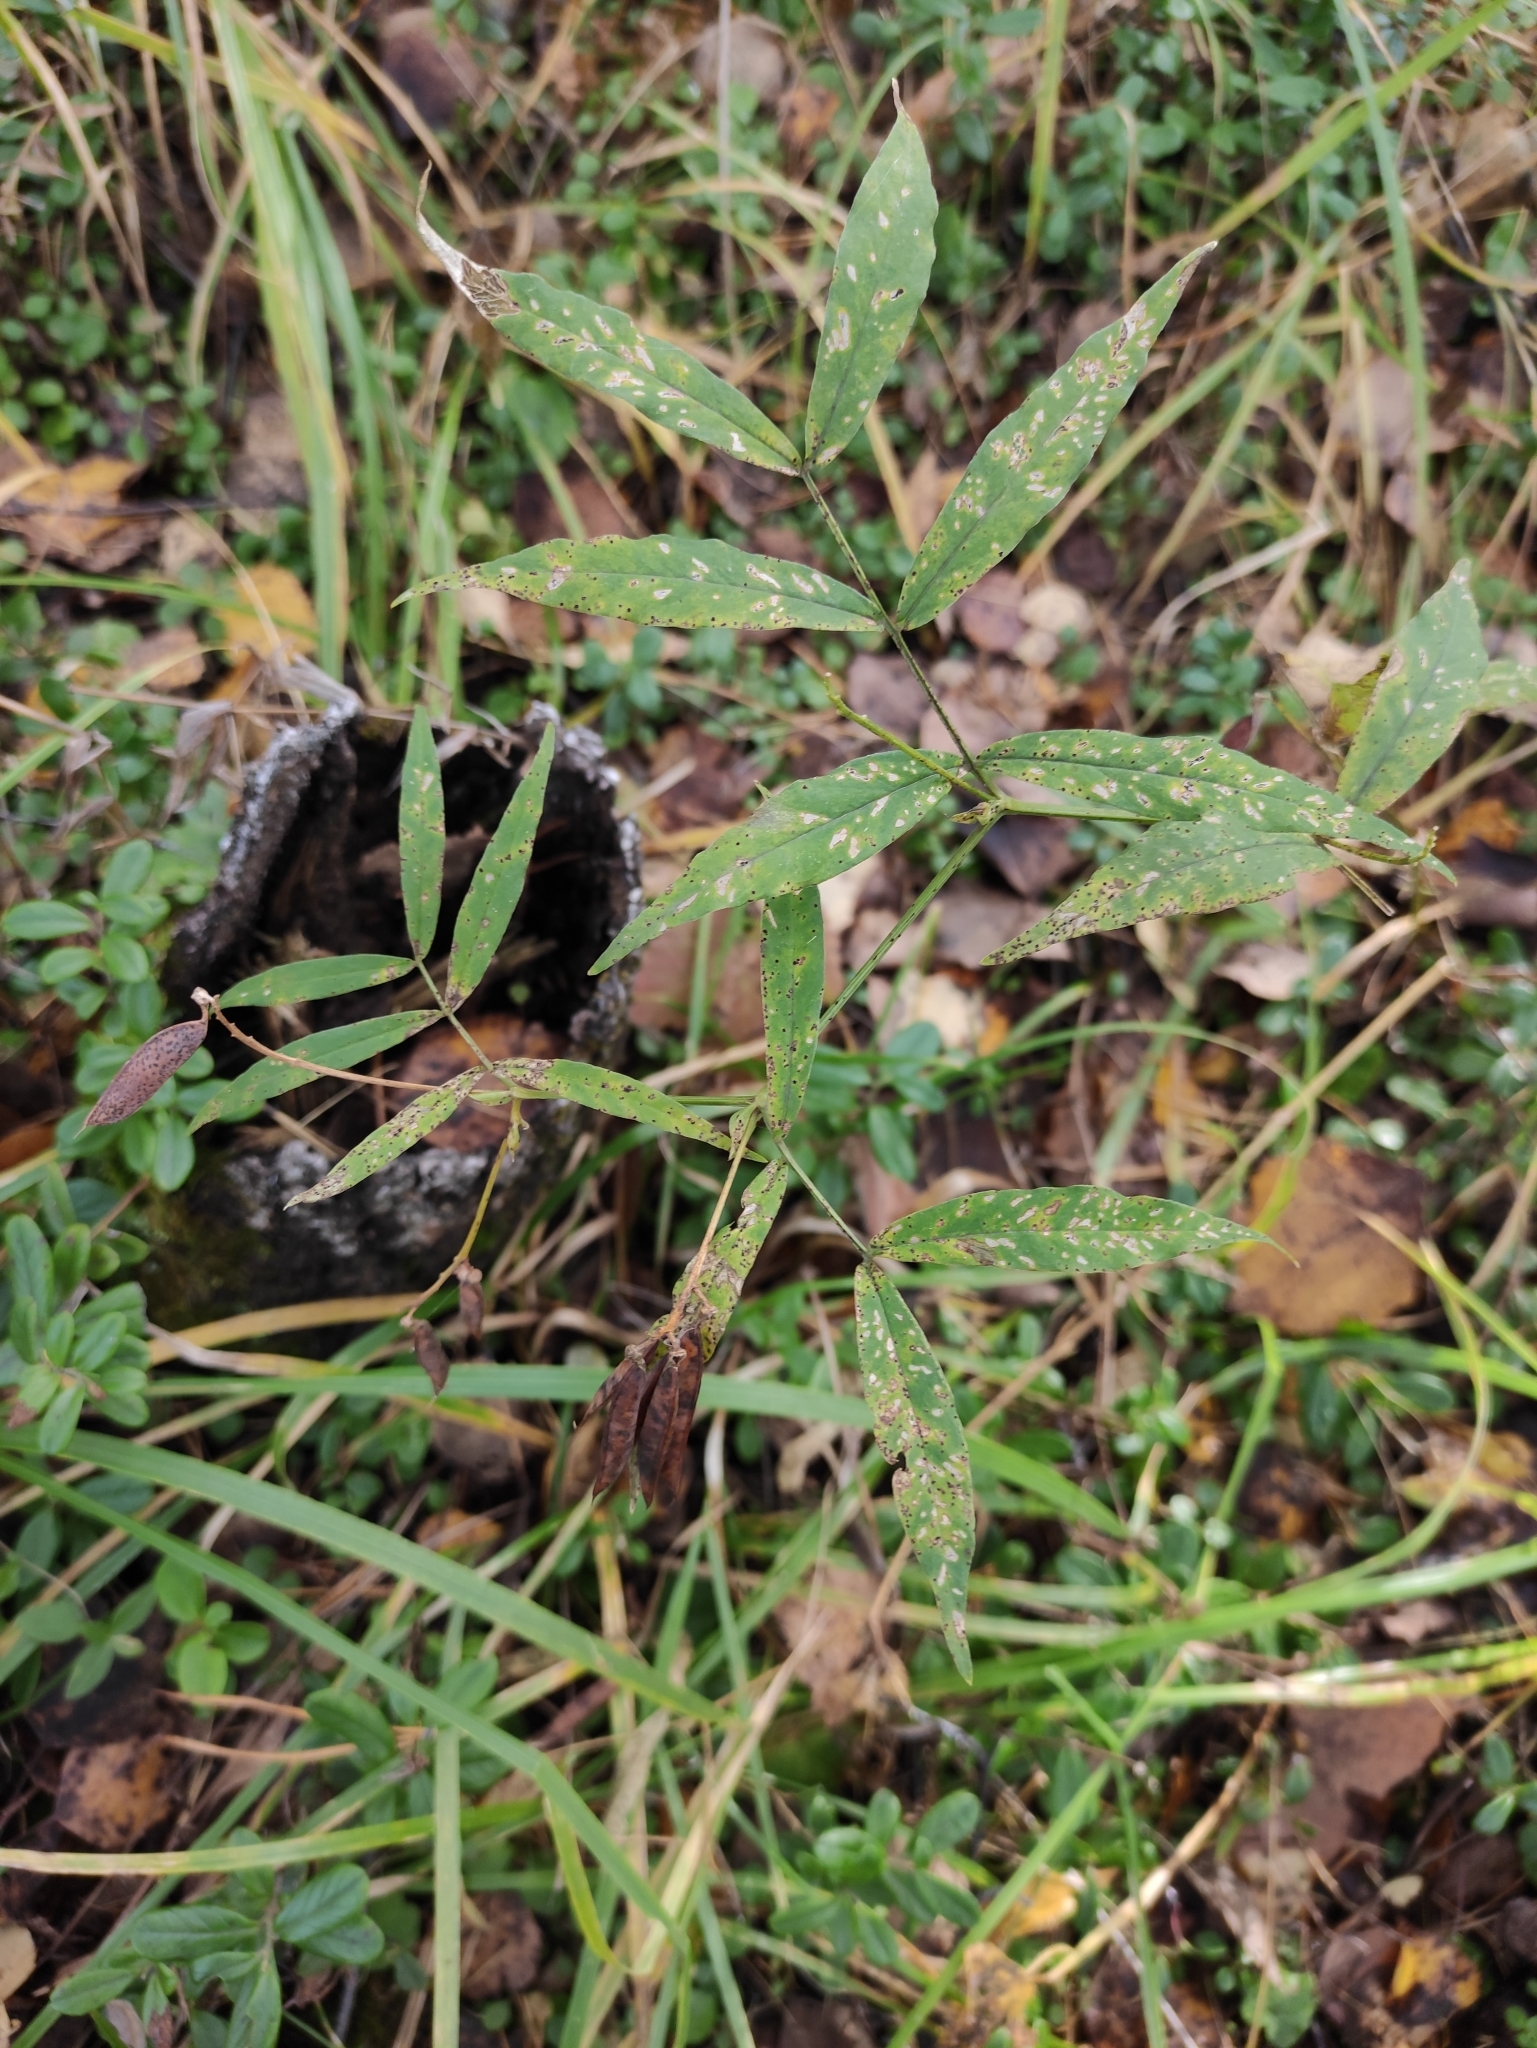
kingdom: Plantae
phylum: Tracheophyta
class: Magnoliopsida
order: Fabales
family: Fabaceae
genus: Vicia
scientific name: Vicia venosa
